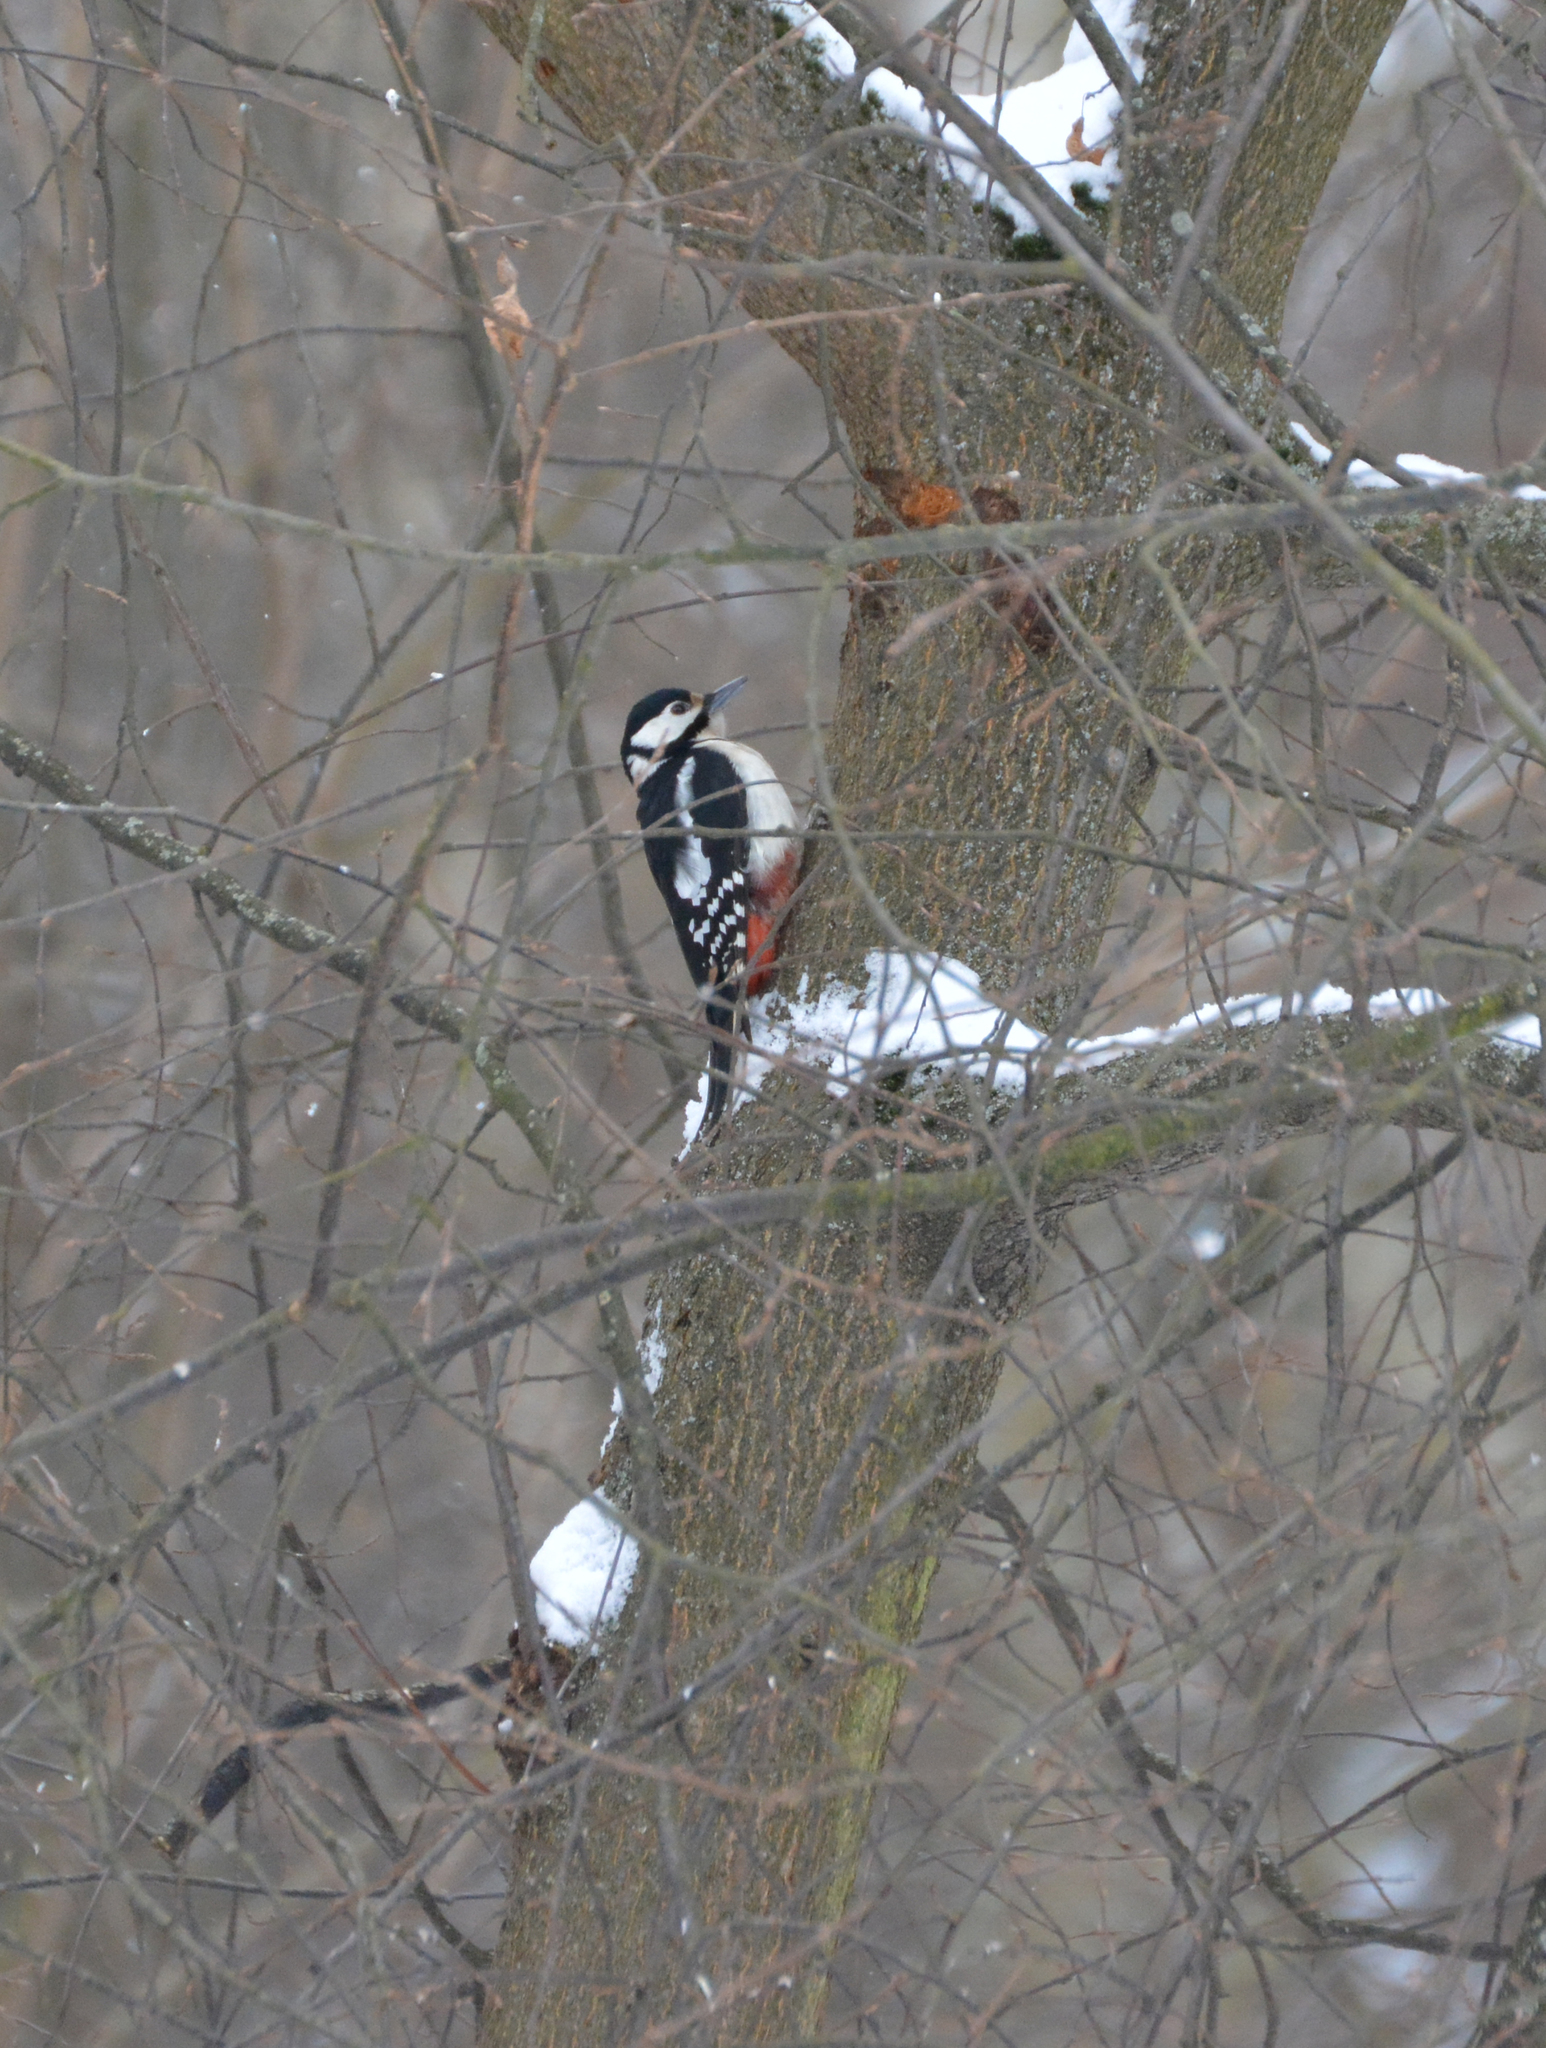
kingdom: Animalia
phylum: Chordata
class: Aves
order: Piciformes
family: Picidae
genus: Dendrocopos
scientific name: Dendrocopos major
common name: Great spotted woodpecker
